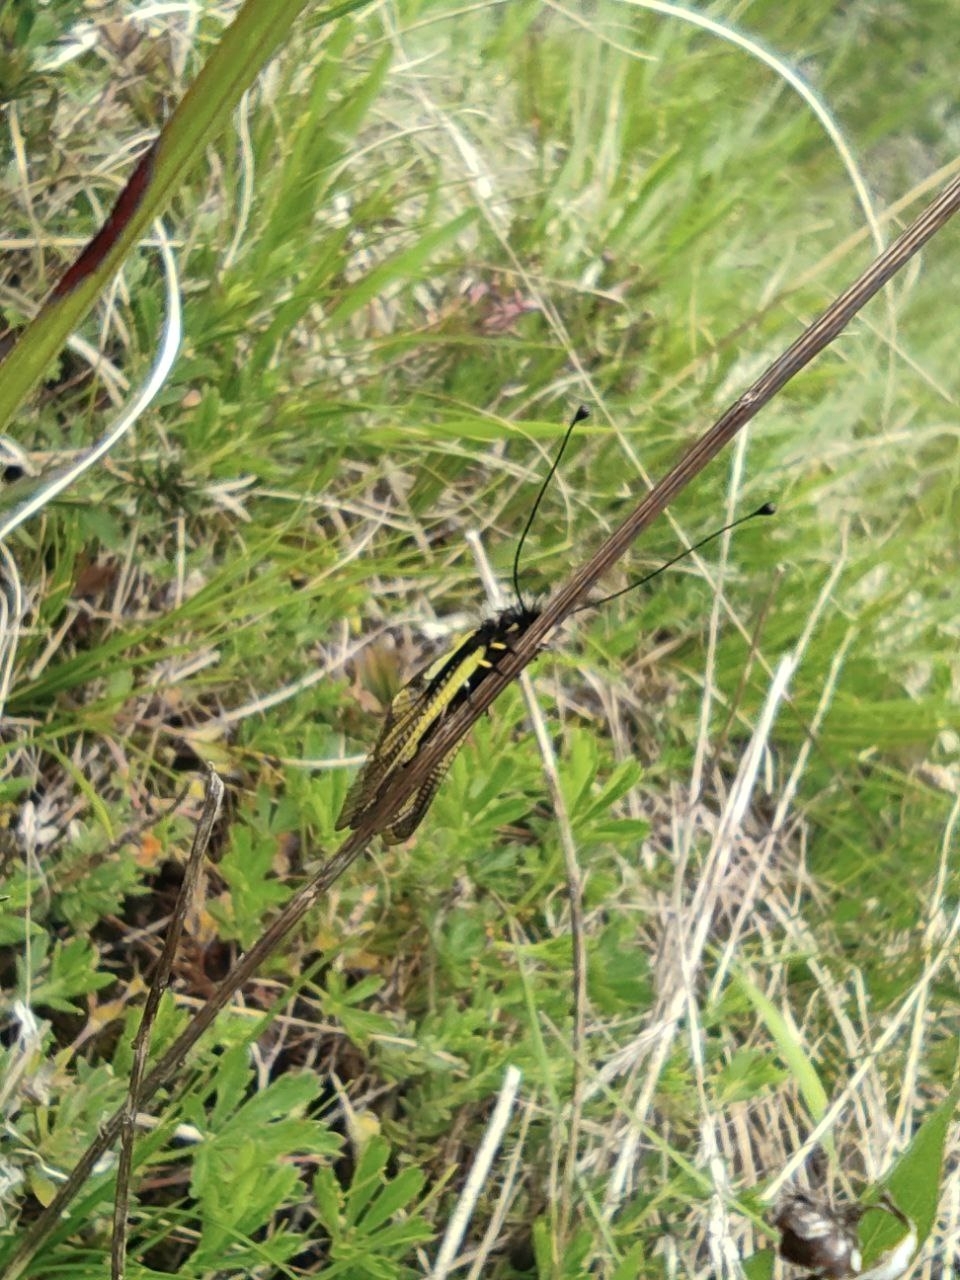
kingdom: Animalia
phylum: Arthropoda
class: Insecta
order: Neuroptera
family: Ascalaphidae
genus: Libelloides
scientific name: Libelloides coccajus
